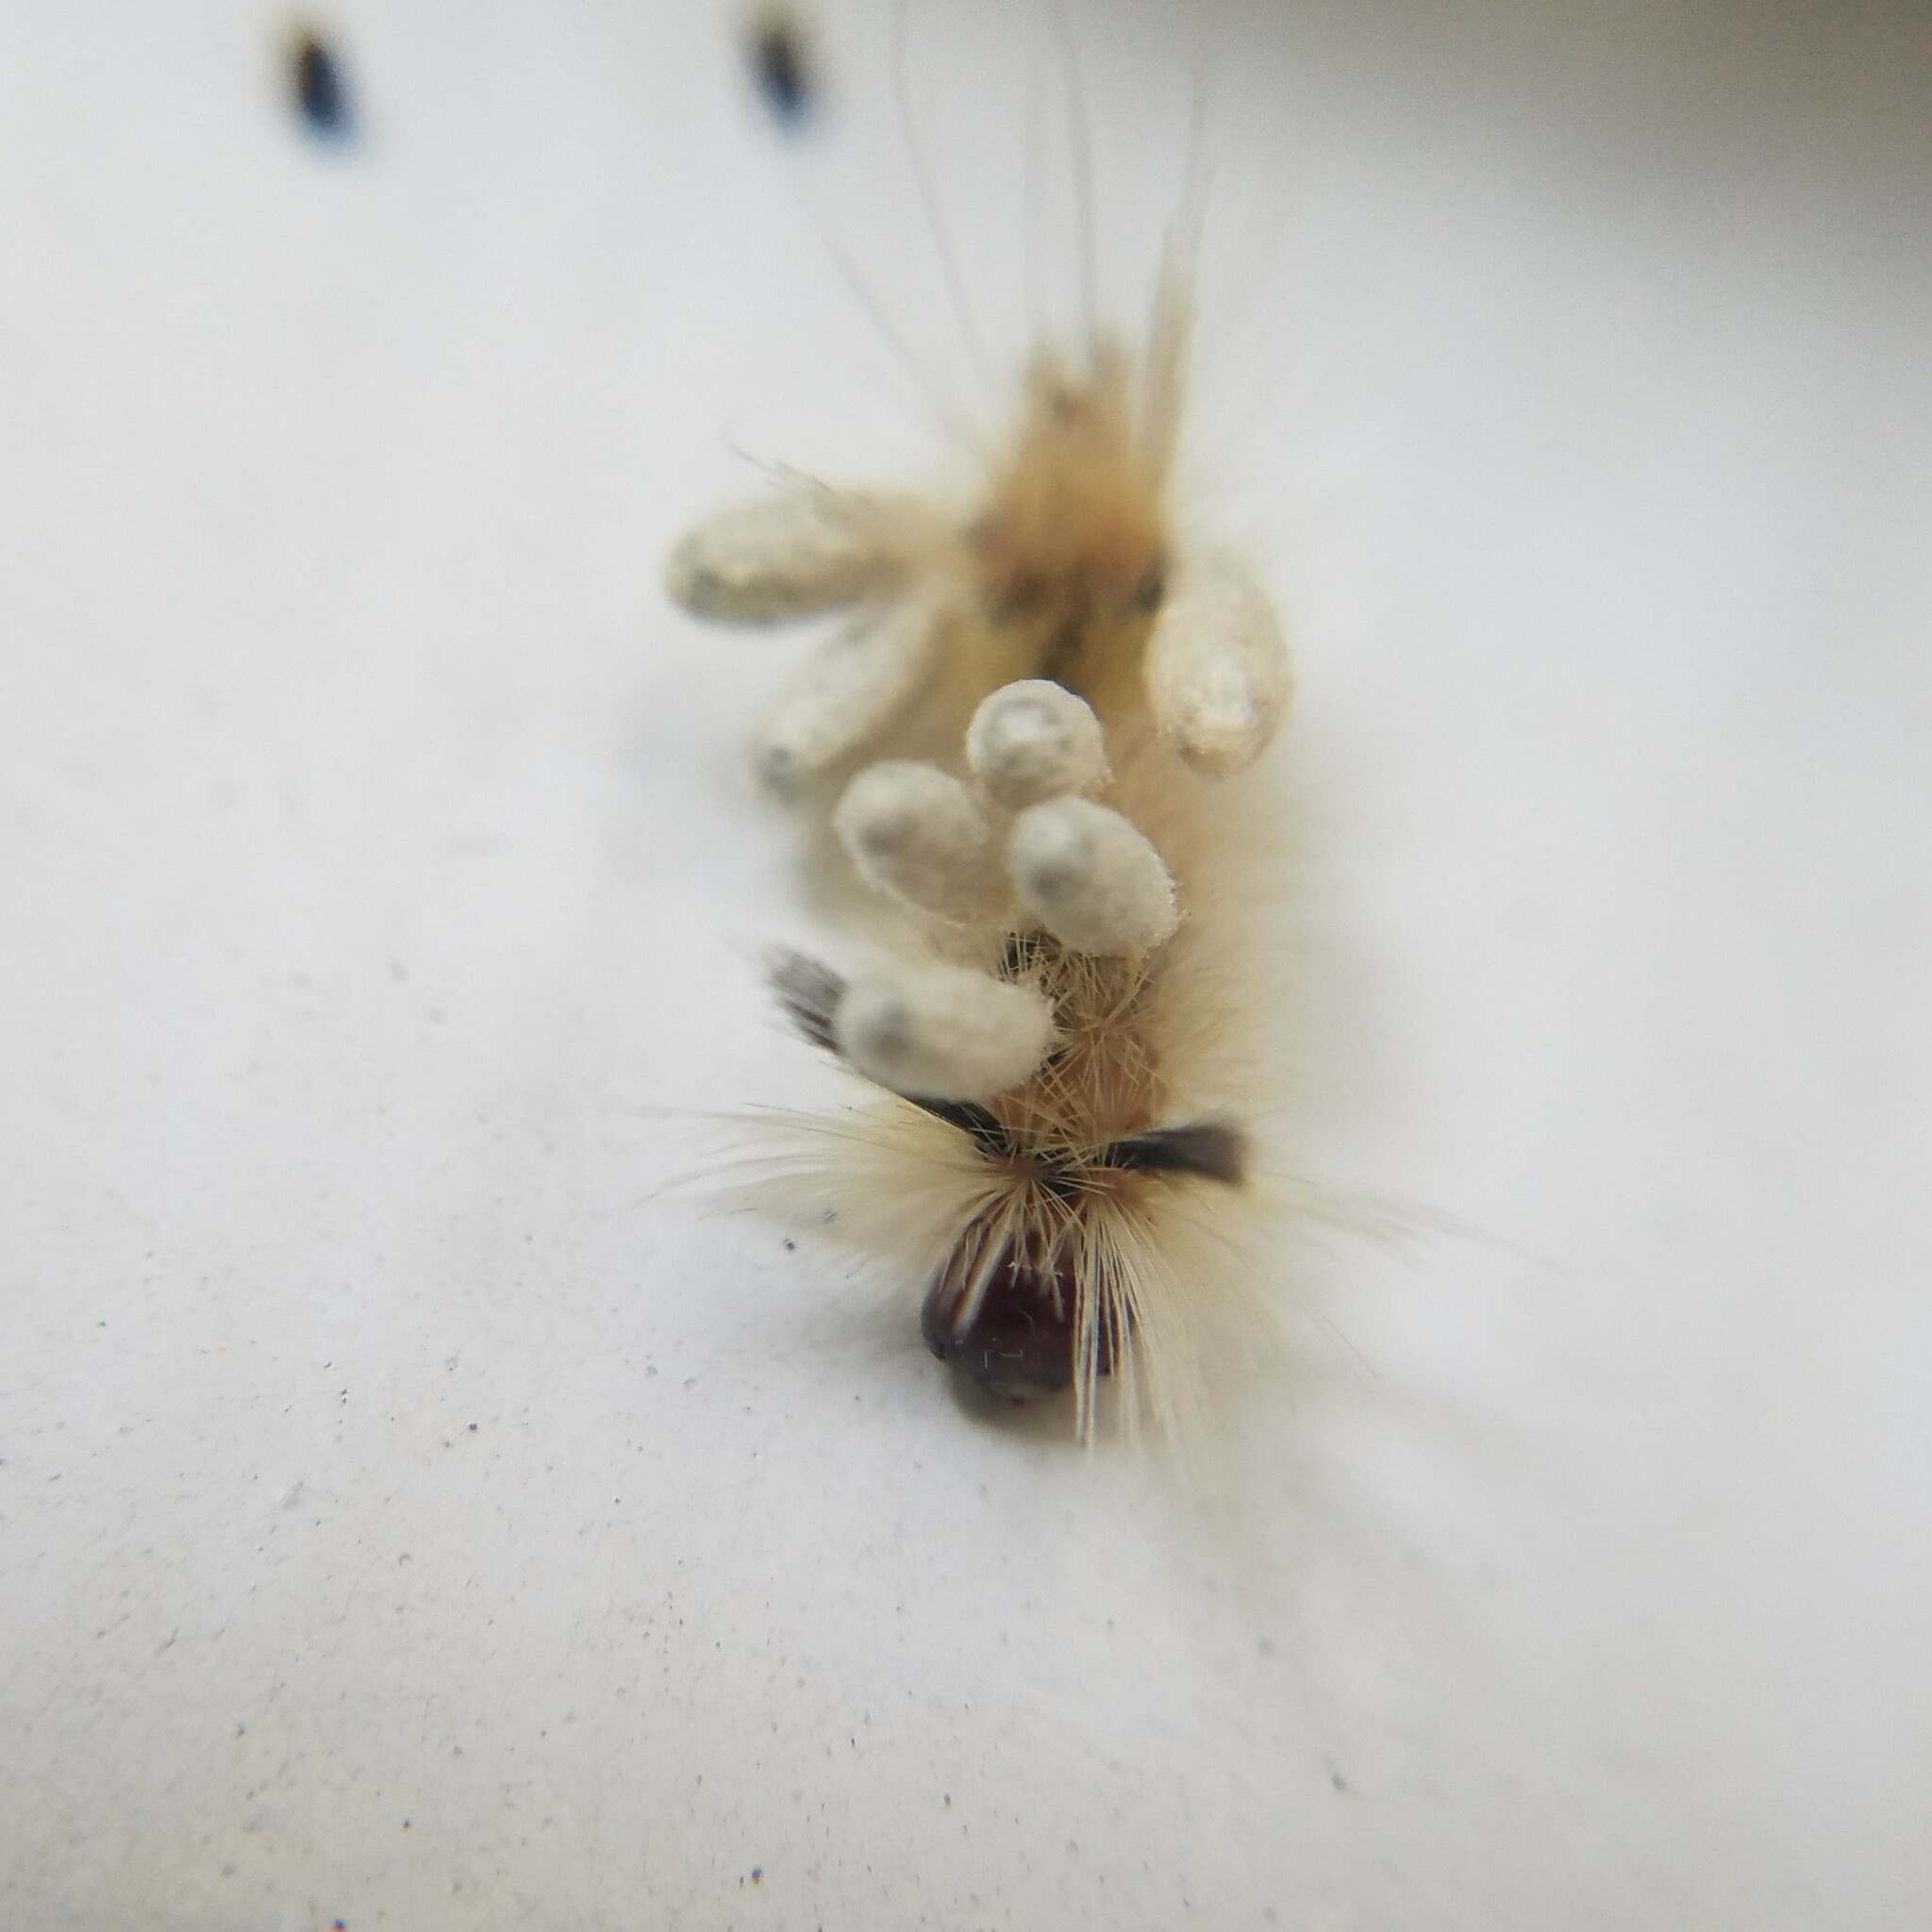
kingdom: Animalia
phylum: Arthropoda
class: Insecta
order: Lepidoptera
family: Erebidae
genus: Halysidota
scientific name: Halysidota tessellaris
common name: Banded tussock moth
